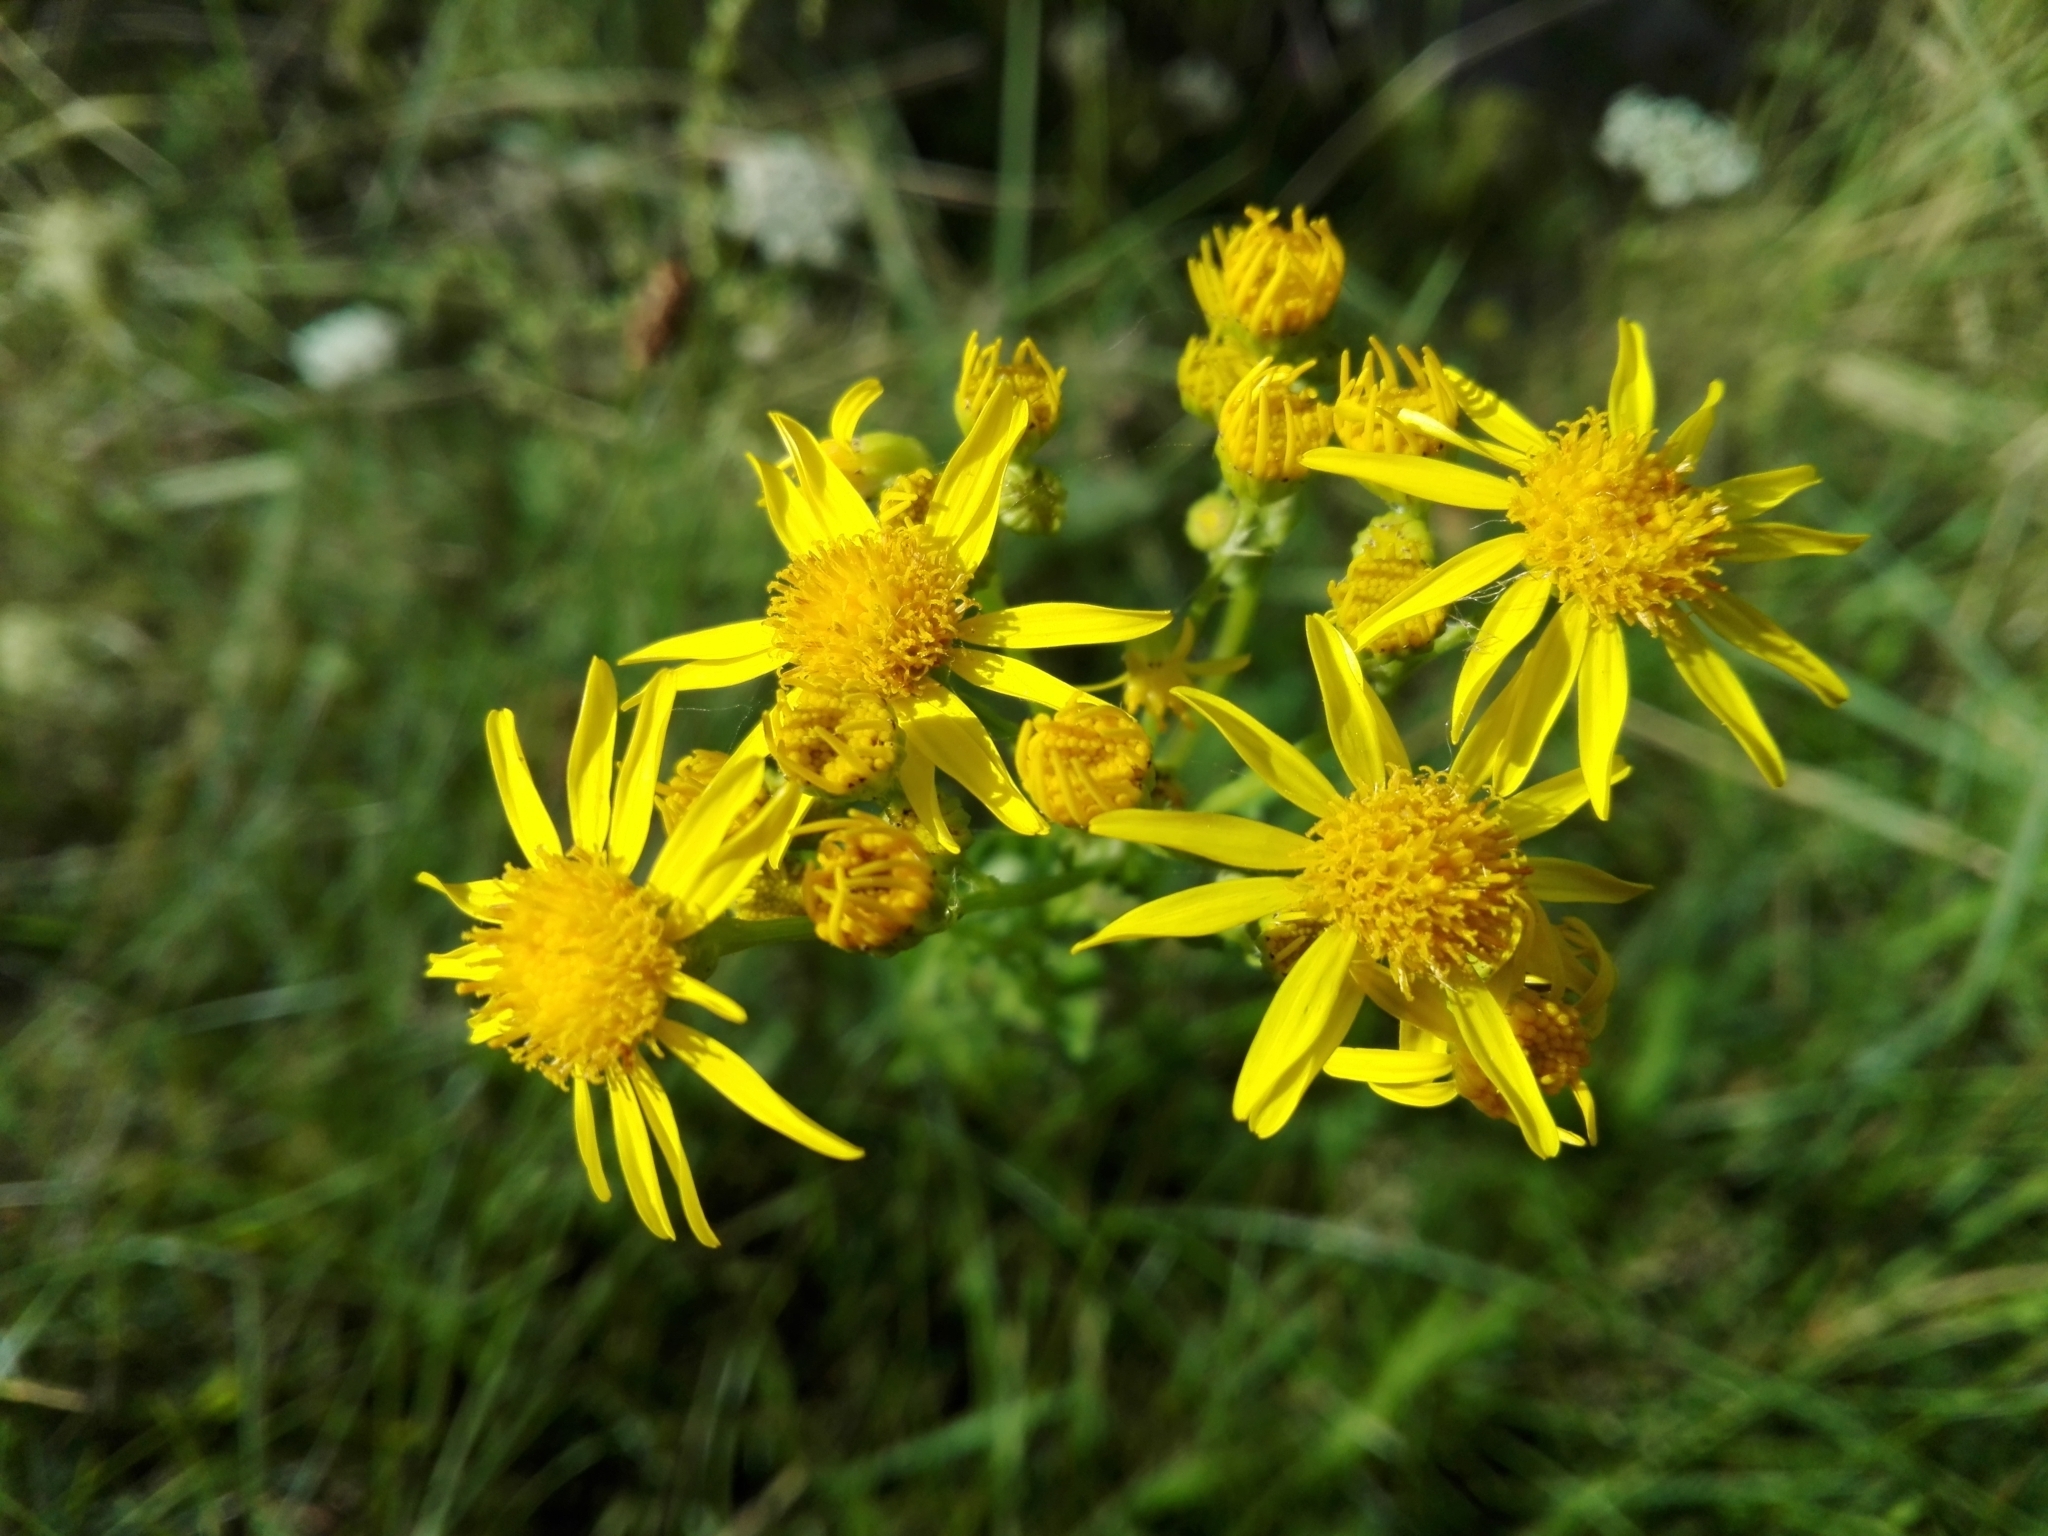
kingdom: Plantae
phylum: Tracheophyta
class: Magnoliopsida
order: Asterales
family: Asteraceae
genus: Jacobaea
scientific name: Jacobaea vulgaris
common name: Stinking willie
